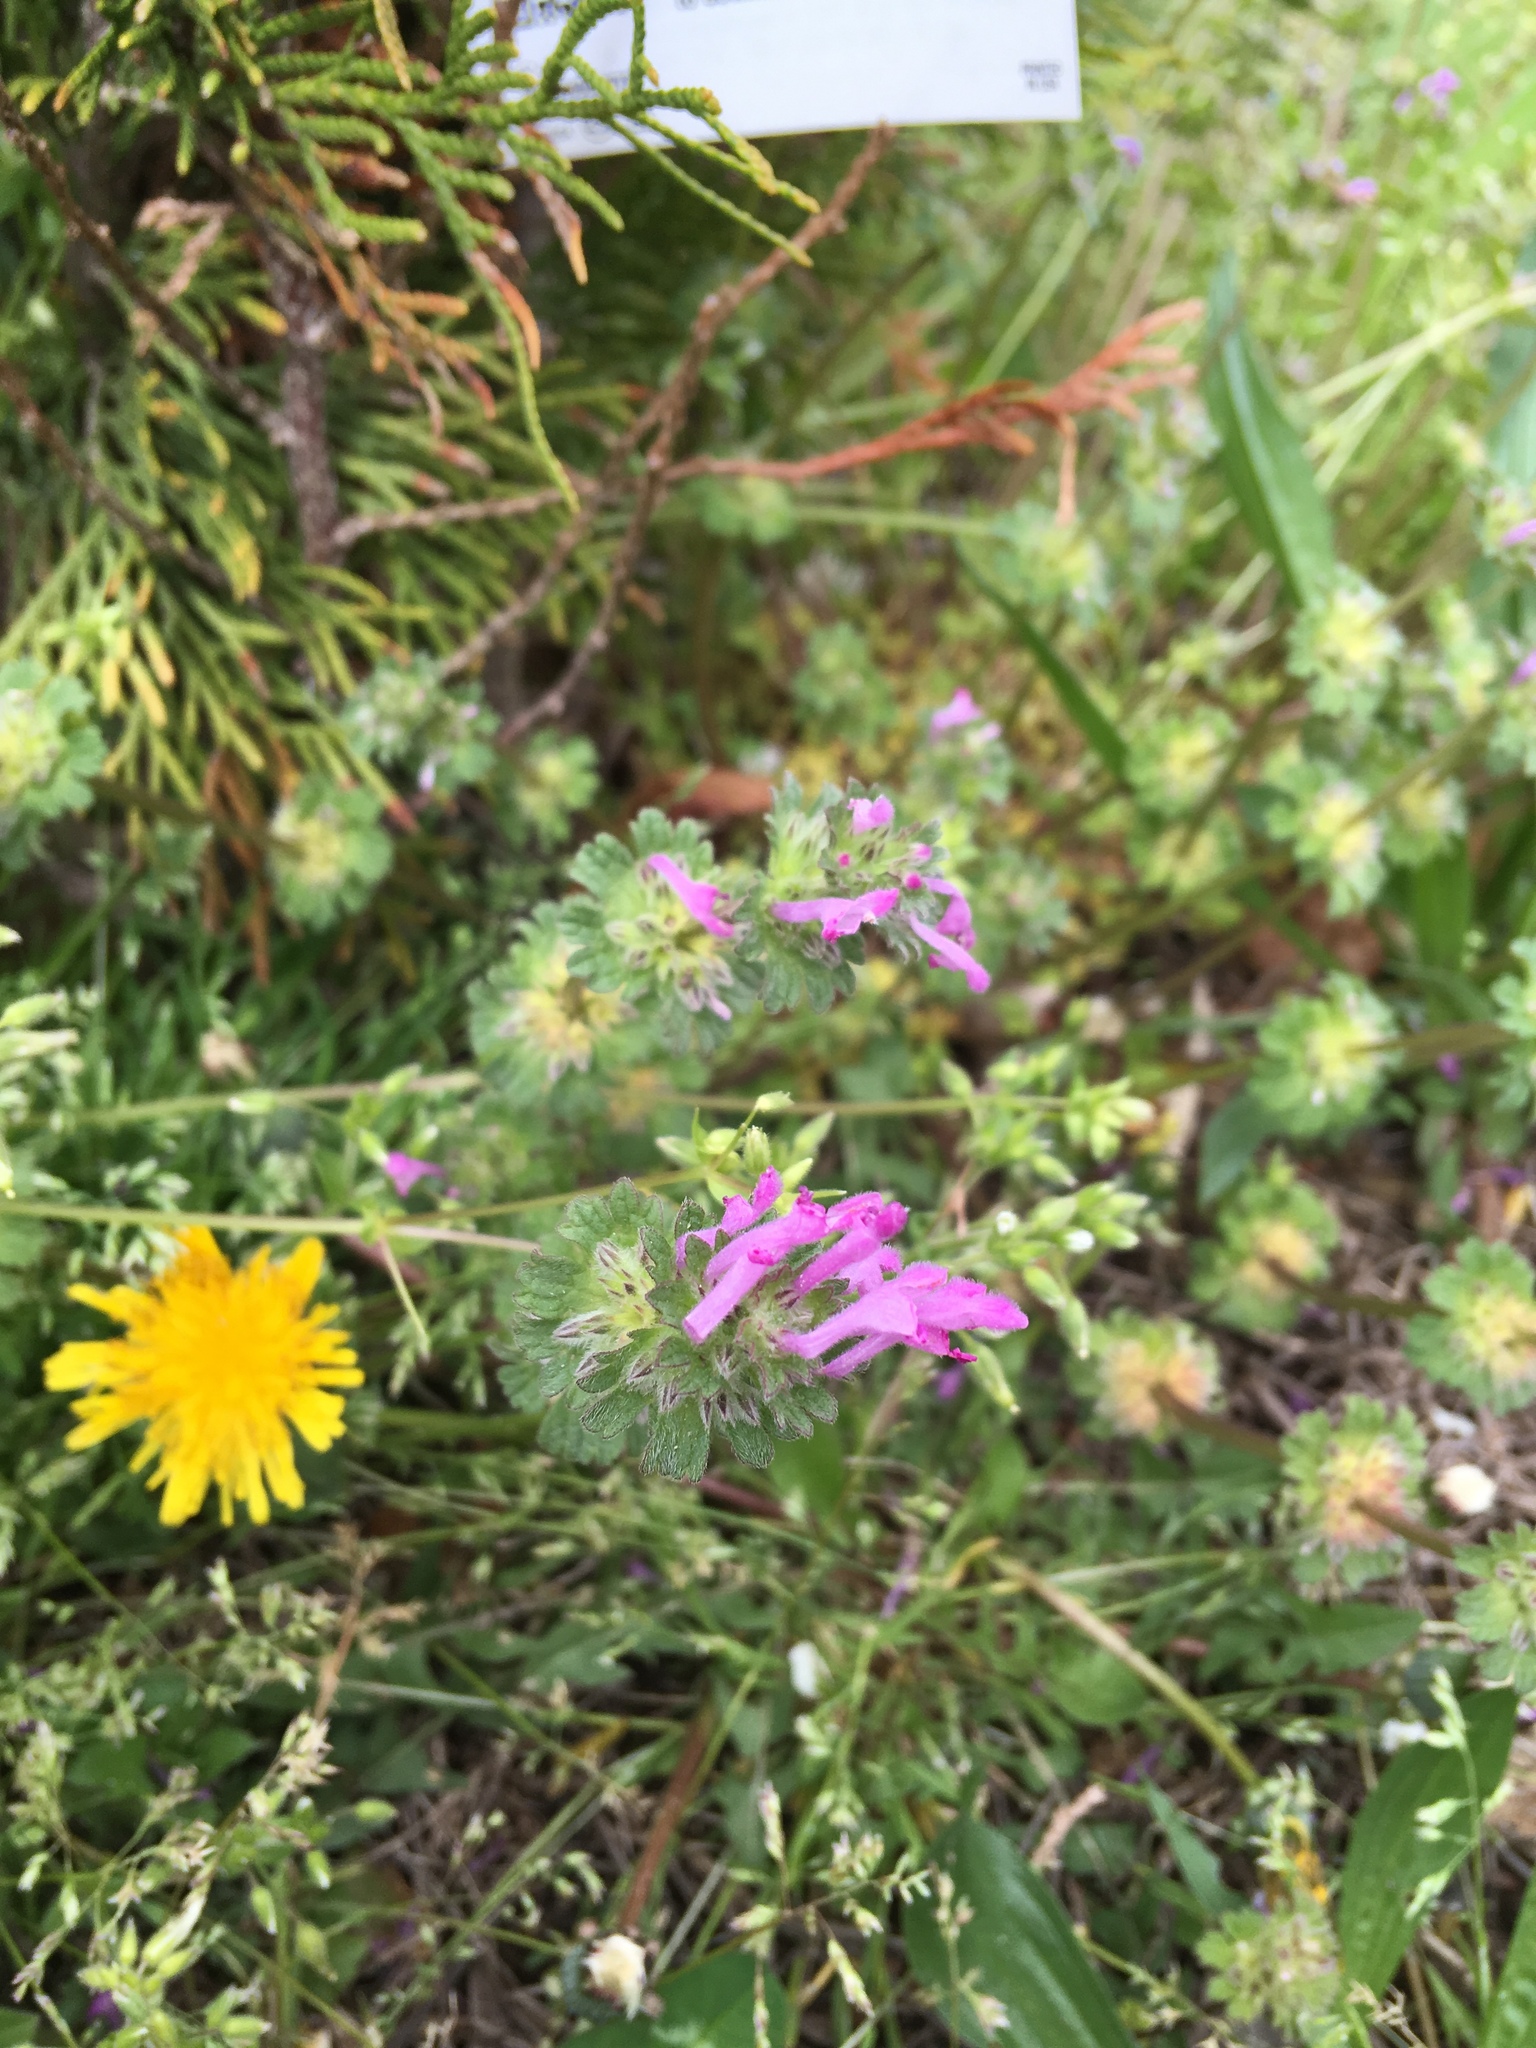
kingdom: Plantae
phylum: Tracheophyta
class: Magnoliopsida
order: Lamiales
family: Lamiaceae
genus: Lamium
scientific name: Lamium amplexicaule
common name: Henbit dead-nettle
